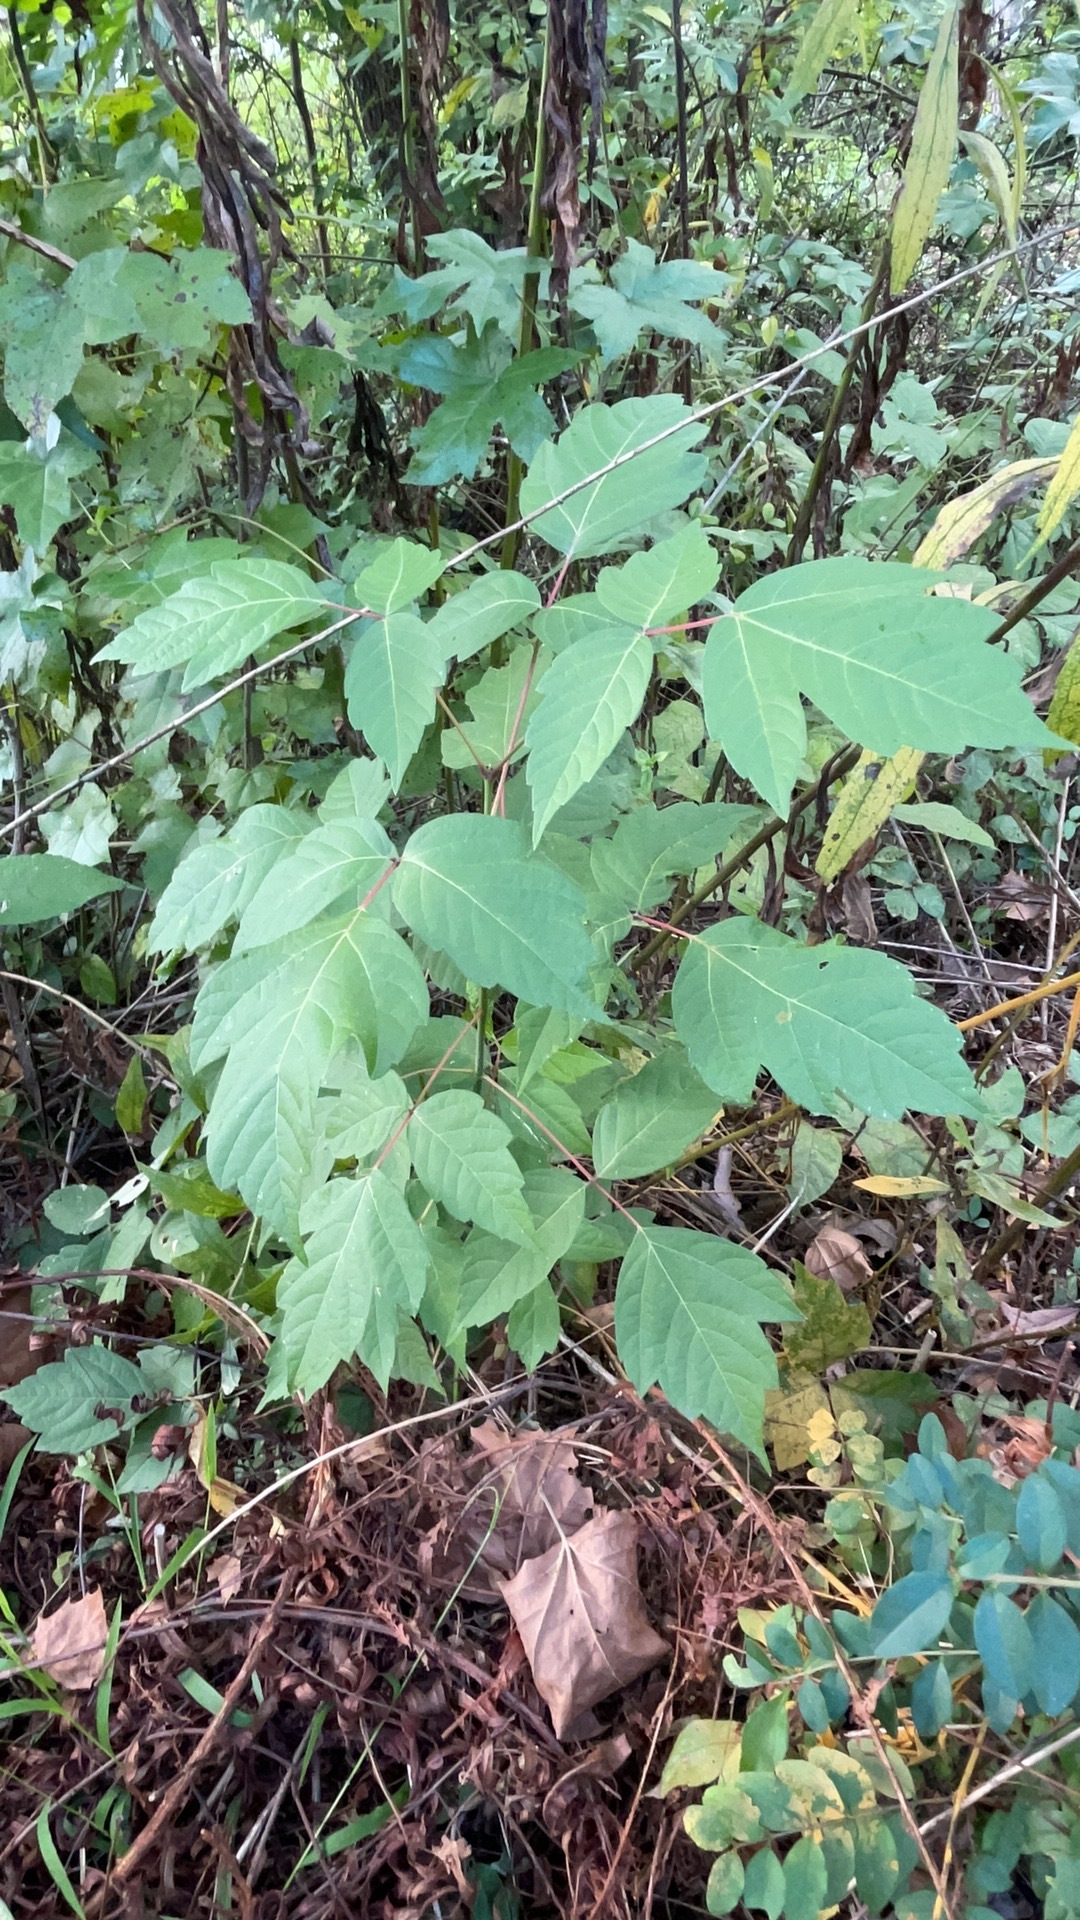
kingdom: Plantae
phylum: Tracheophyta
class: Magnoliopsida
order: Sapindales
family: Sapindaceae
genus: Acer
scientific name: Acer negundo
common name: Ashleaf maple
